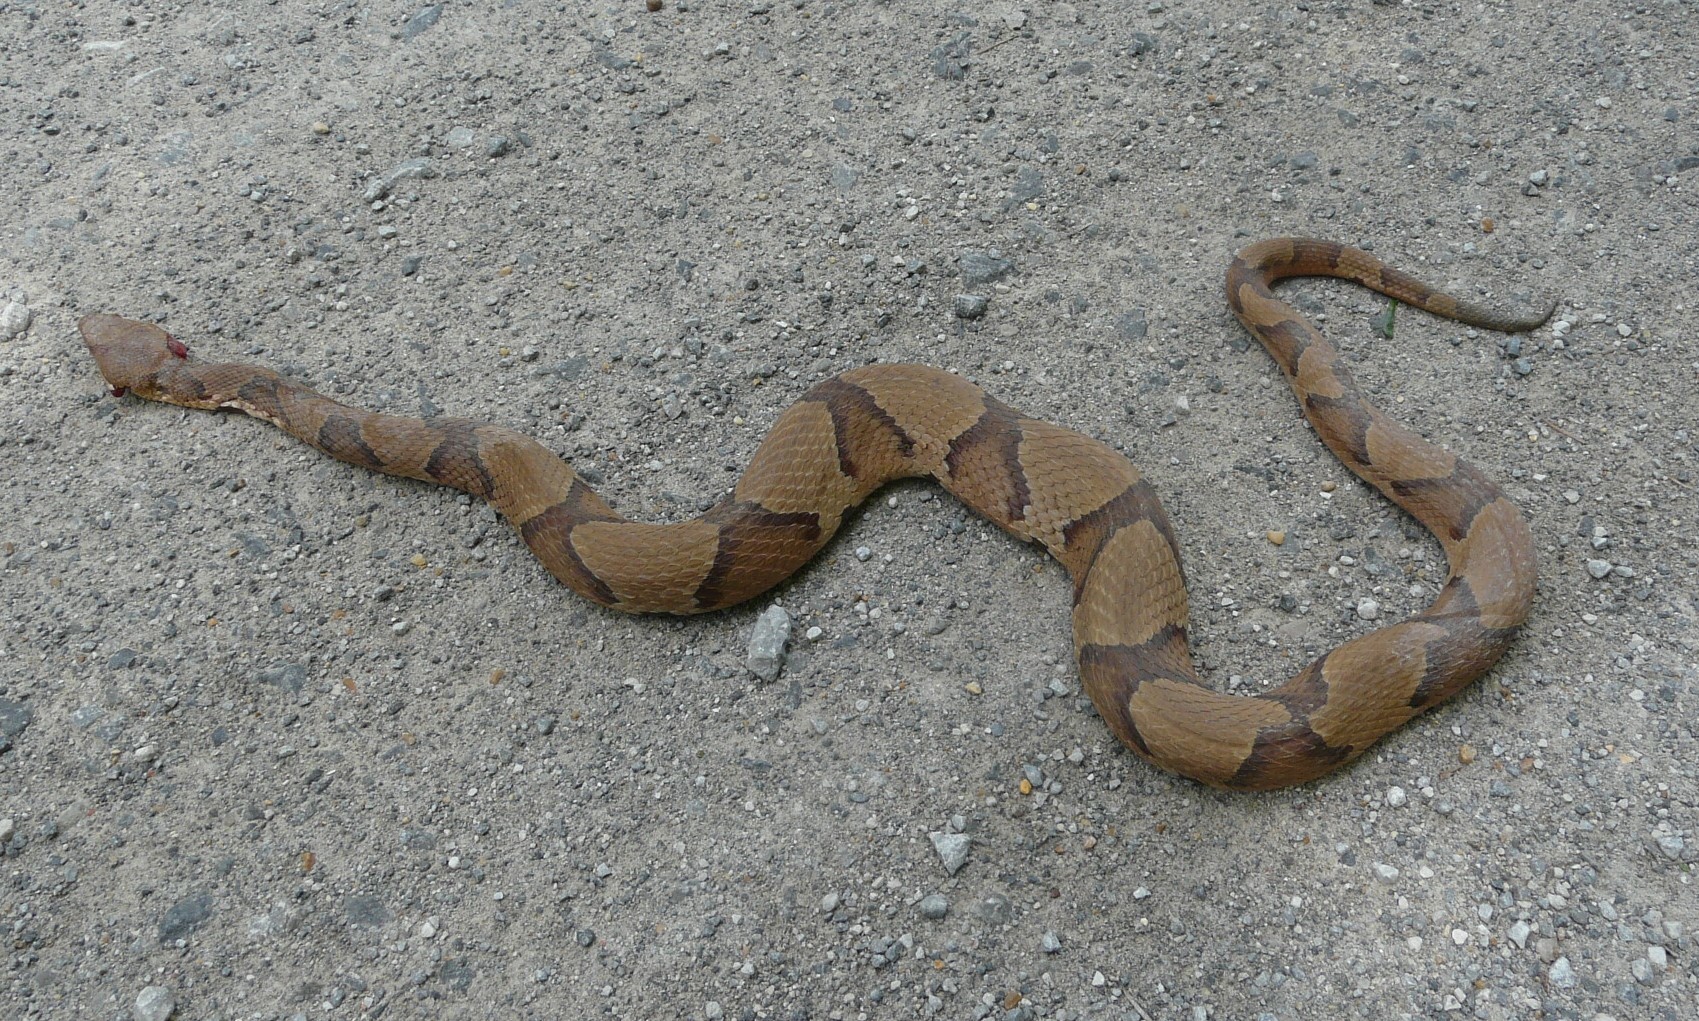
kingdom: Animalia
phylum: Chordata
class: Squamata
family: Viperidae
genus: Agkistrodon
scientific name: Agkistrodon contortrix
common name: Northern copperhead
